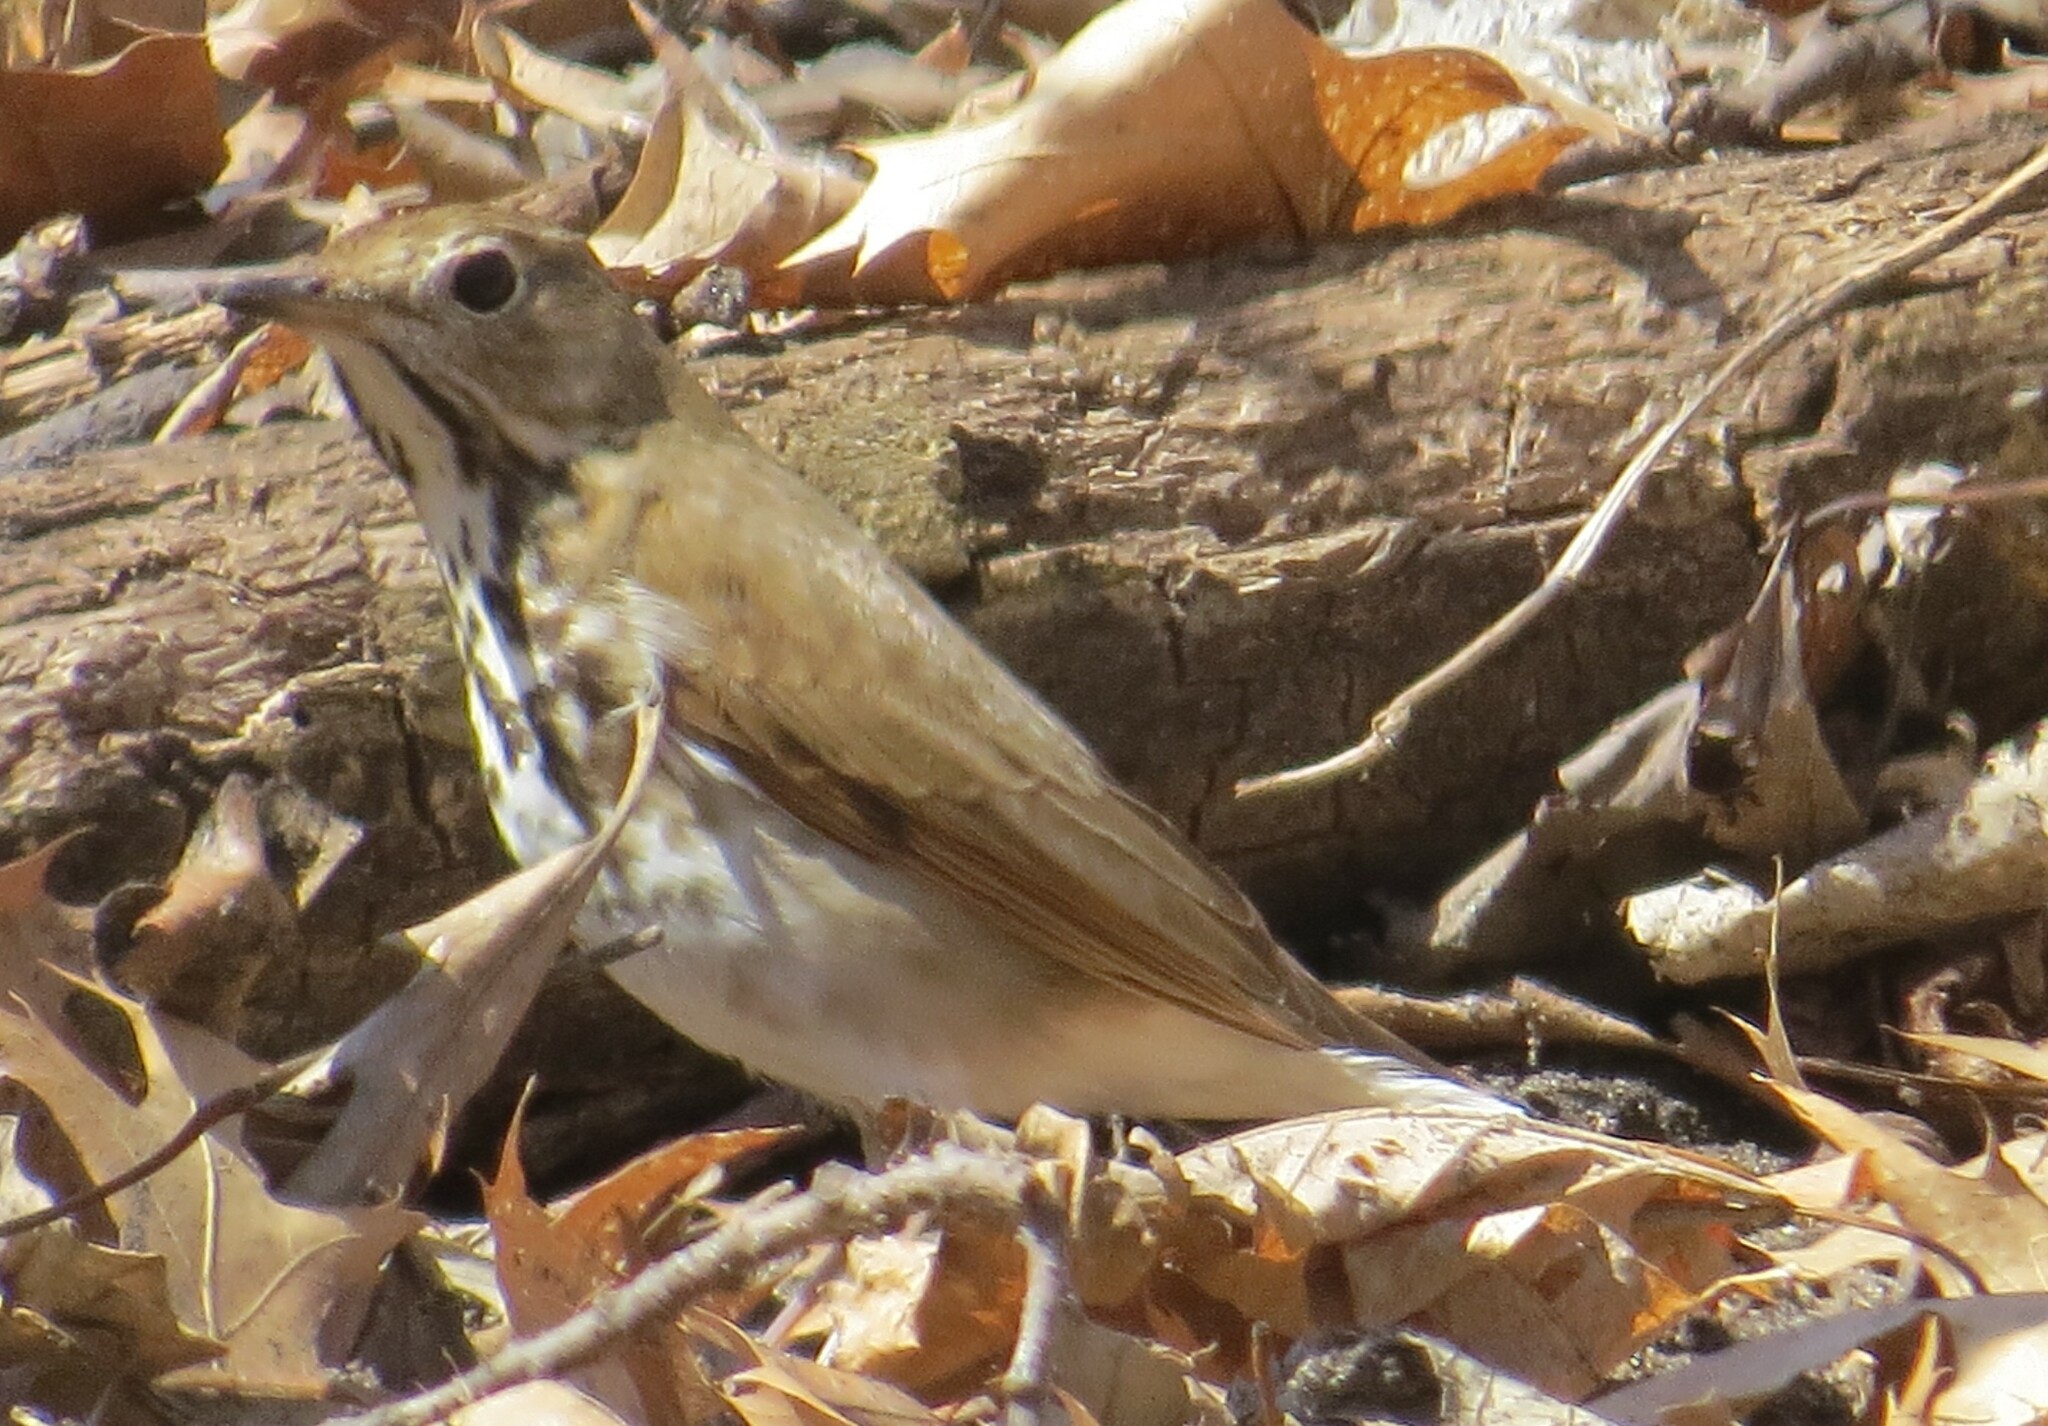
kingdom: Animalia
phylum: Chordata
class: Aves
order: Passeriformes
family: Turdidae
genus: Catharus
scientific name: Catharus guttatus
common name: Hermit thrush
